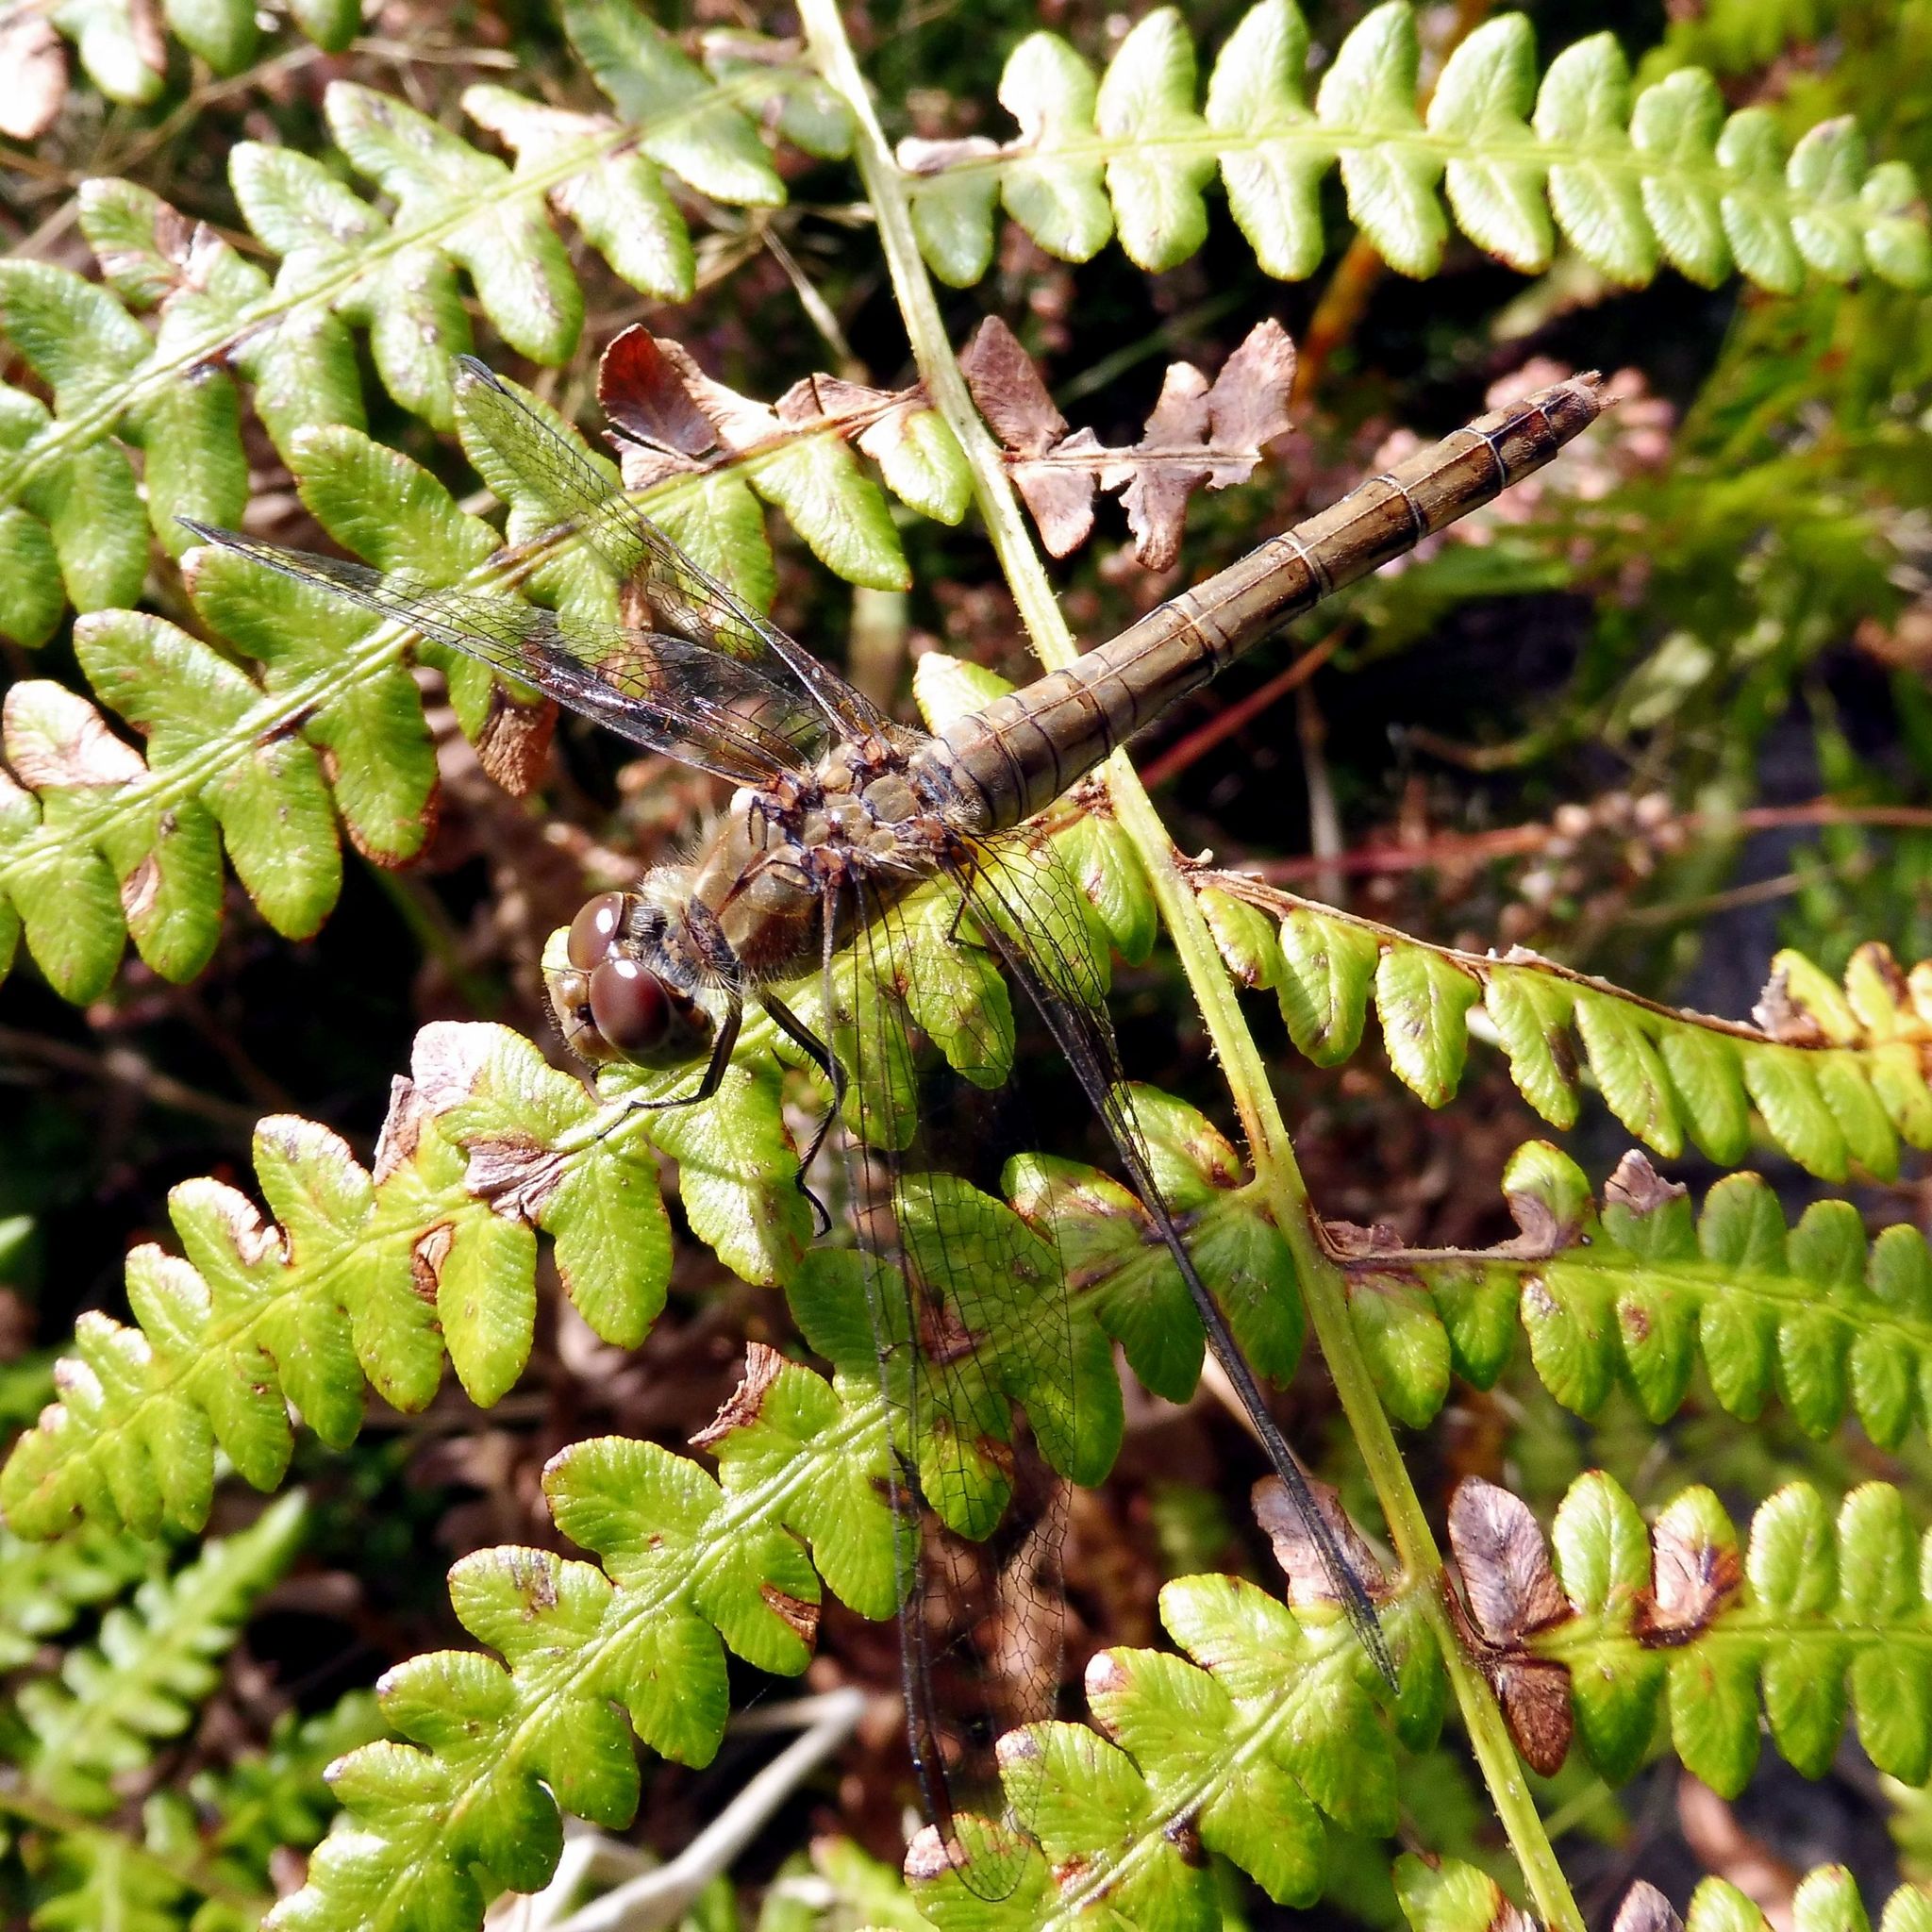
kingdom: Animalia
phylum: Arthropoda
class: Insecta
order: Odonata
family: Libellulidae
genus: Sympetrum
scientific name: Sympetrum striolatum
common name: Common darter
